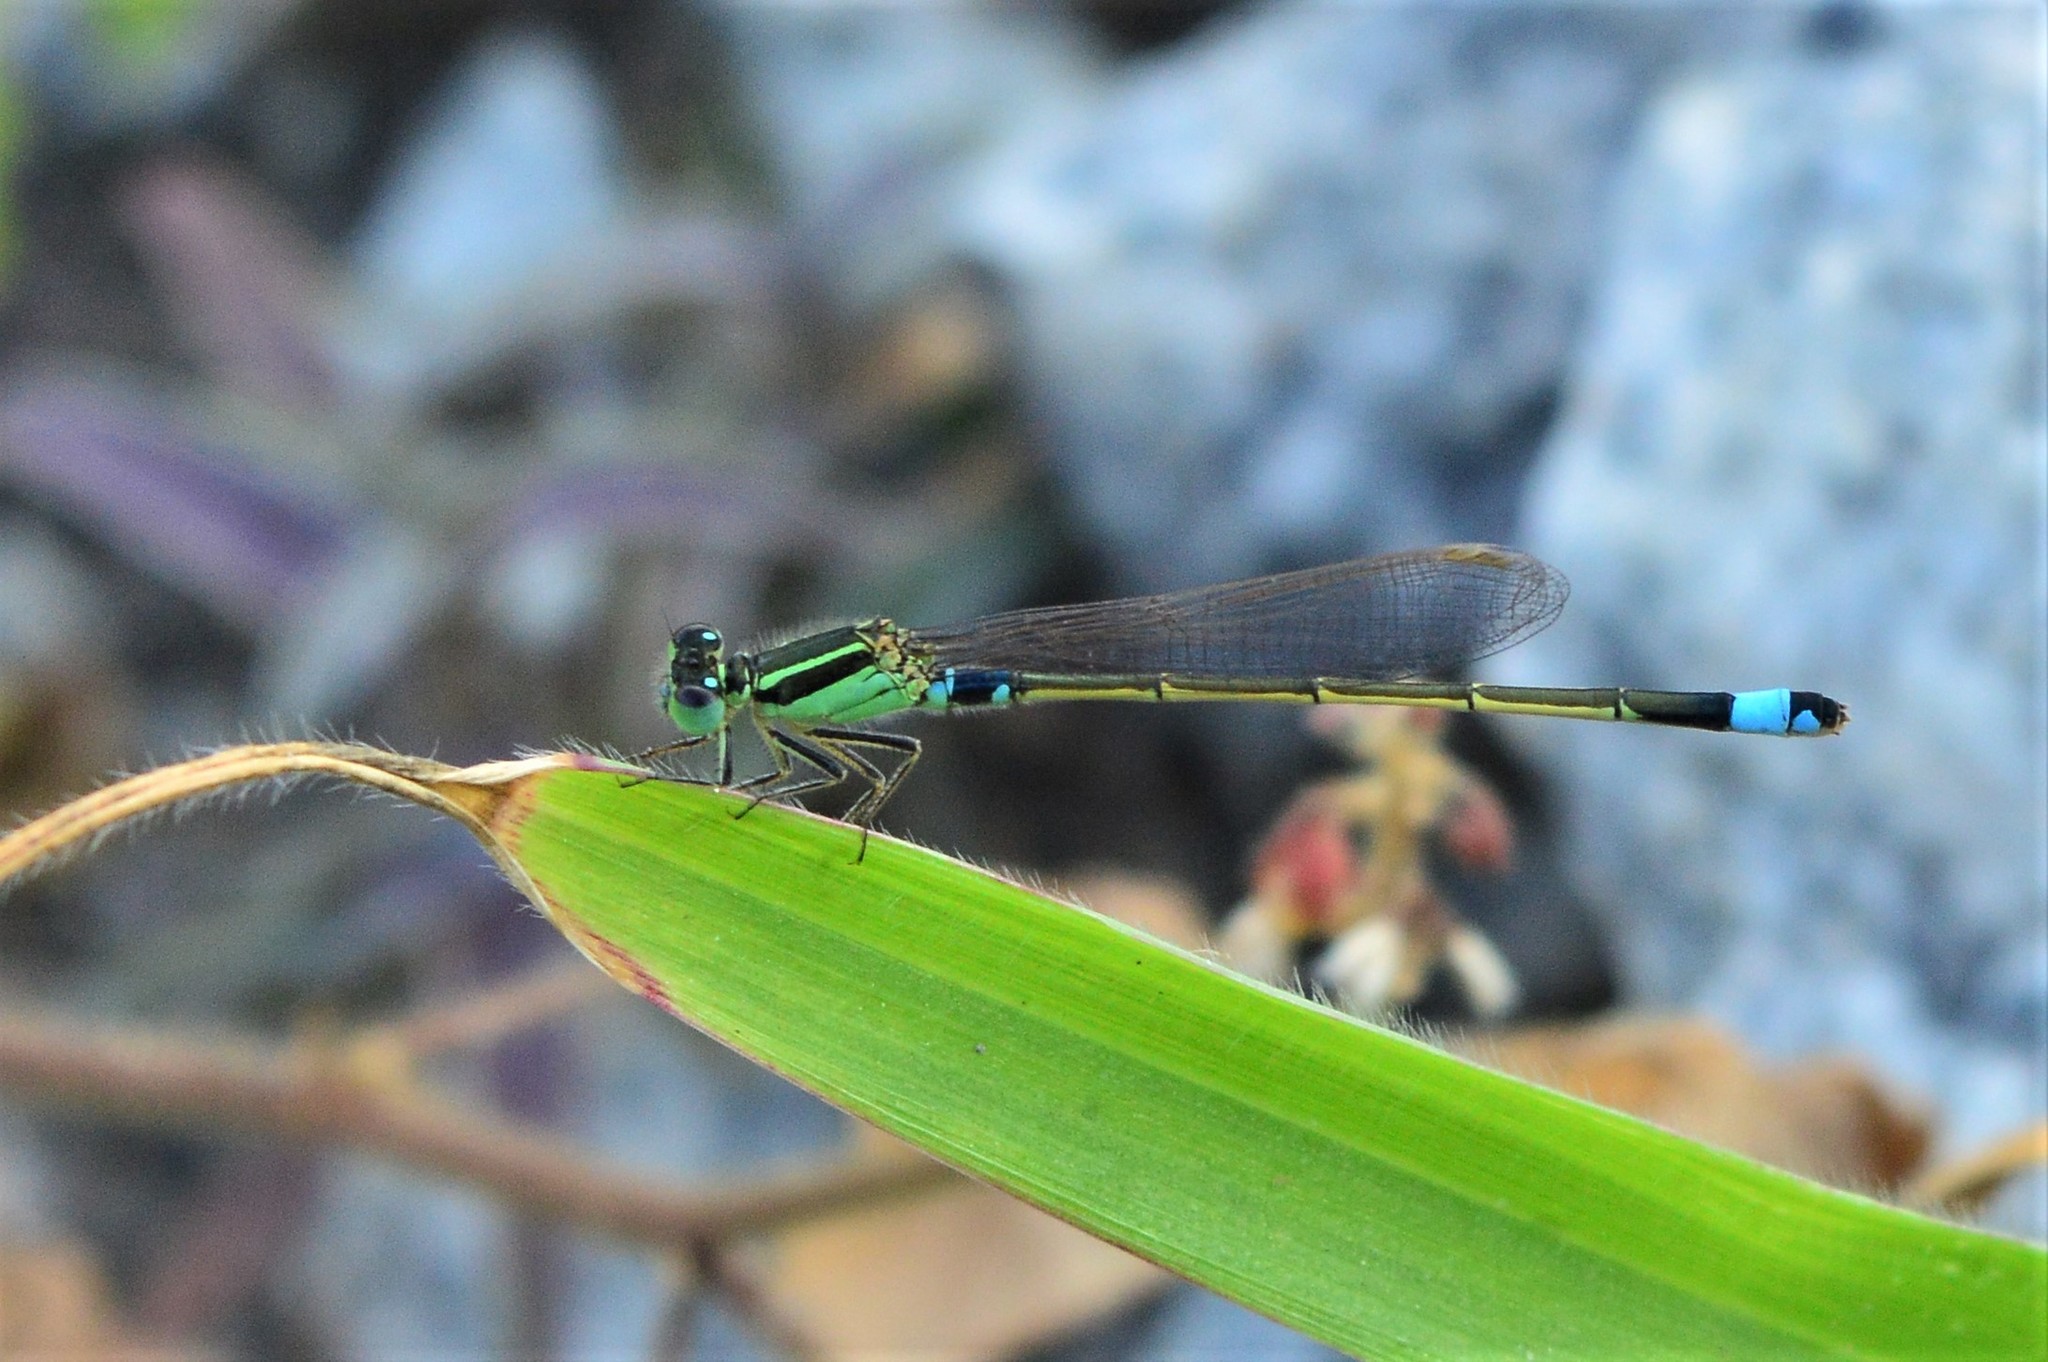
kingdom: Animalia
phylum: Arthropoda
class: Insecta
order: Odonata
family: Coenagrionidae
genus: Ischnura
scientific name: Ischnura senegalensis
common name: Tropical bluetail
